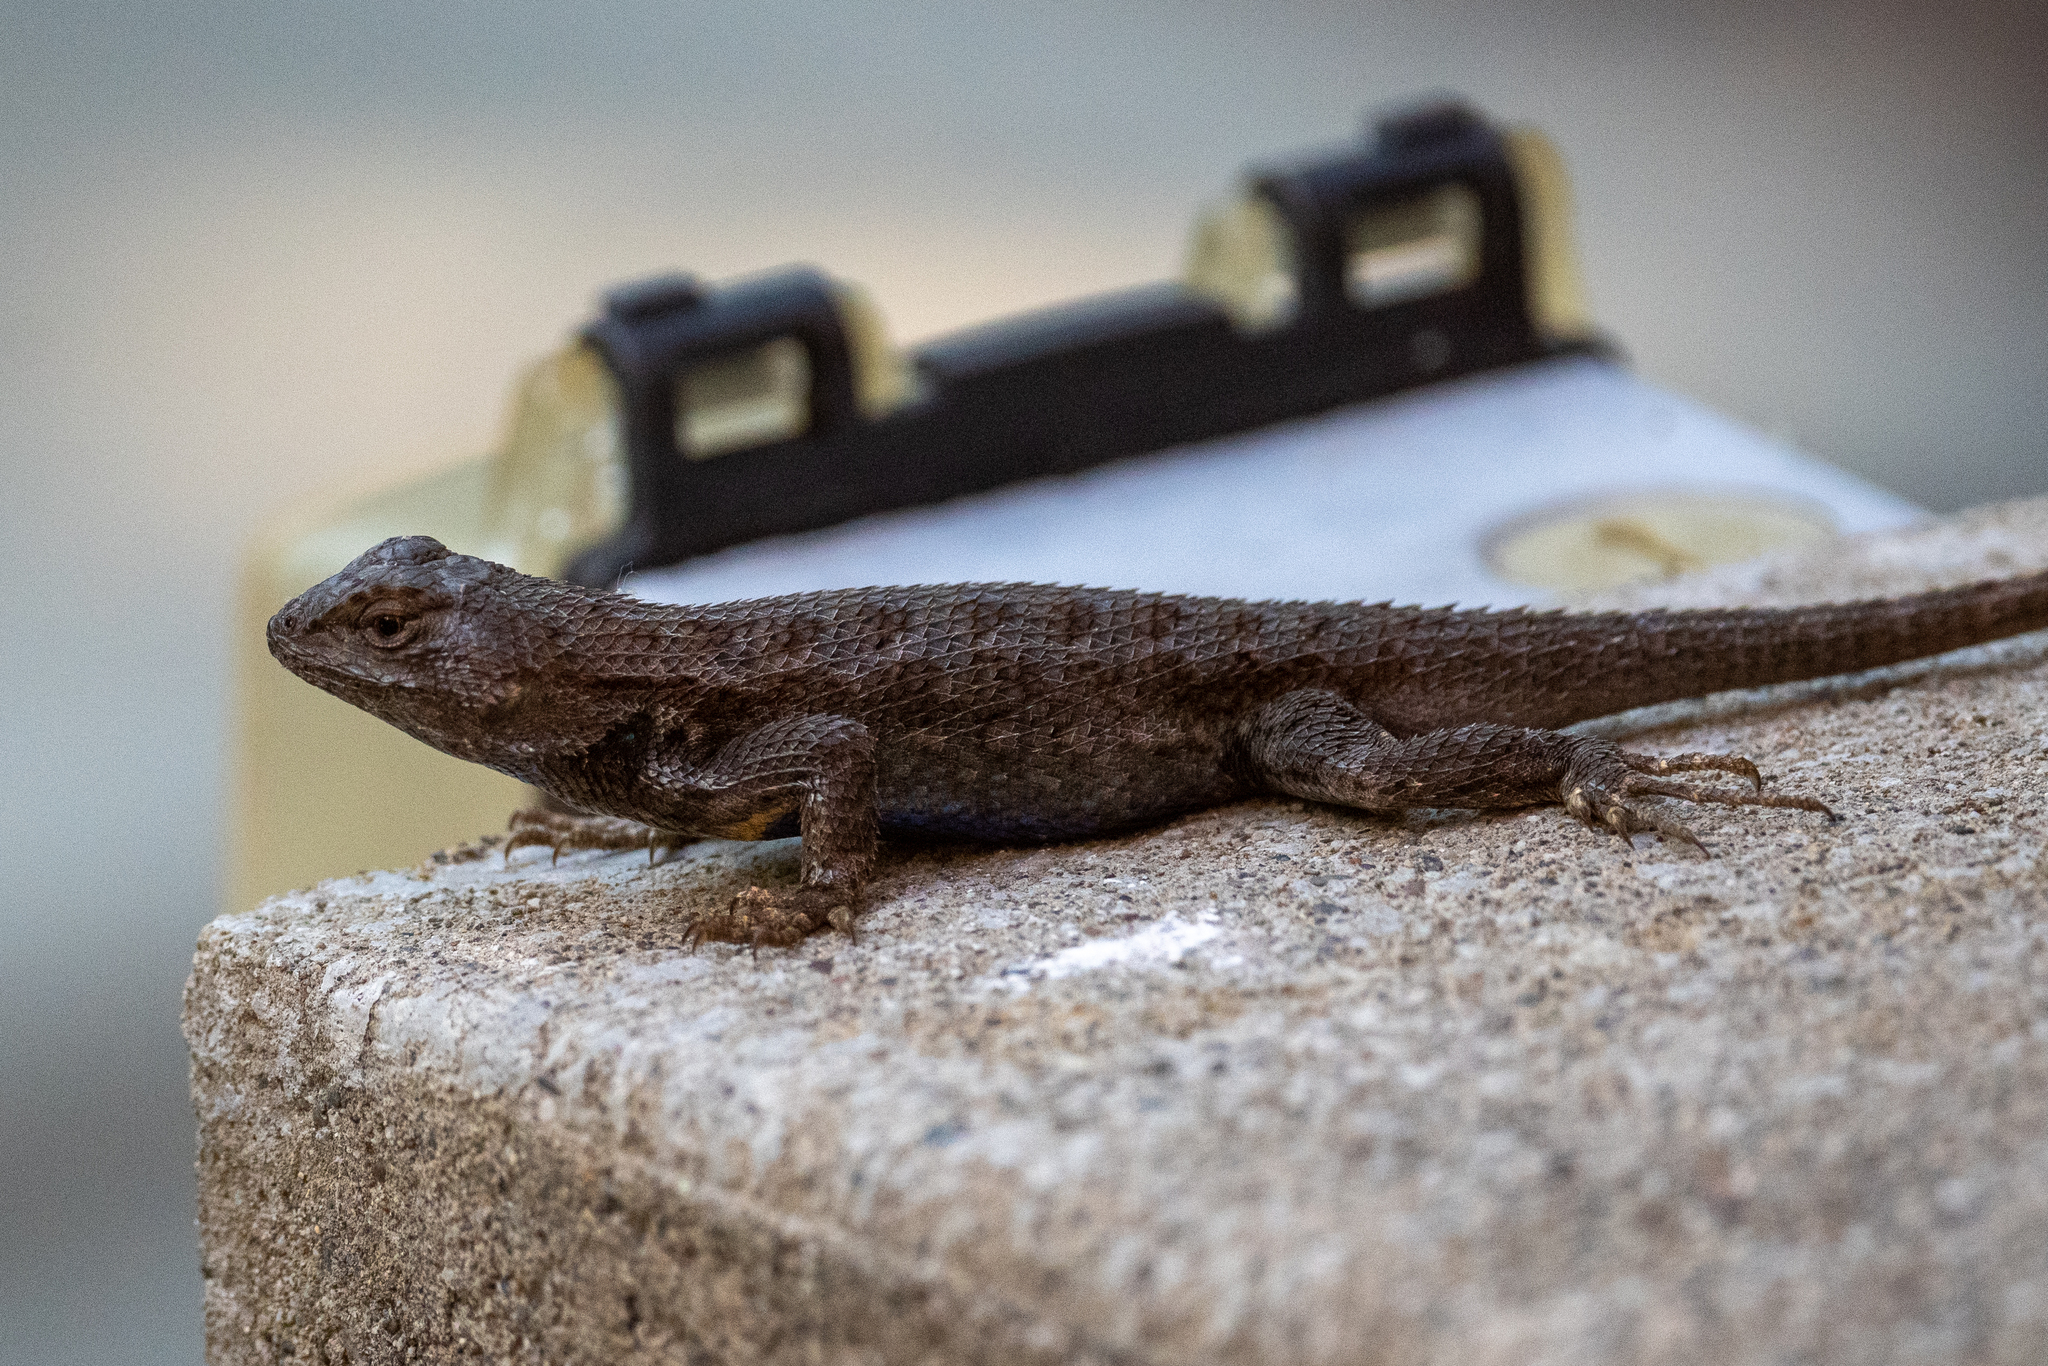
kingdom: Animalia
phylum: Chordata
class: Squamata
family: Phrynosomatidae
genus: Sceloporus
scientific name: Sceloporus occidentalis
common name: Western fence lizard
